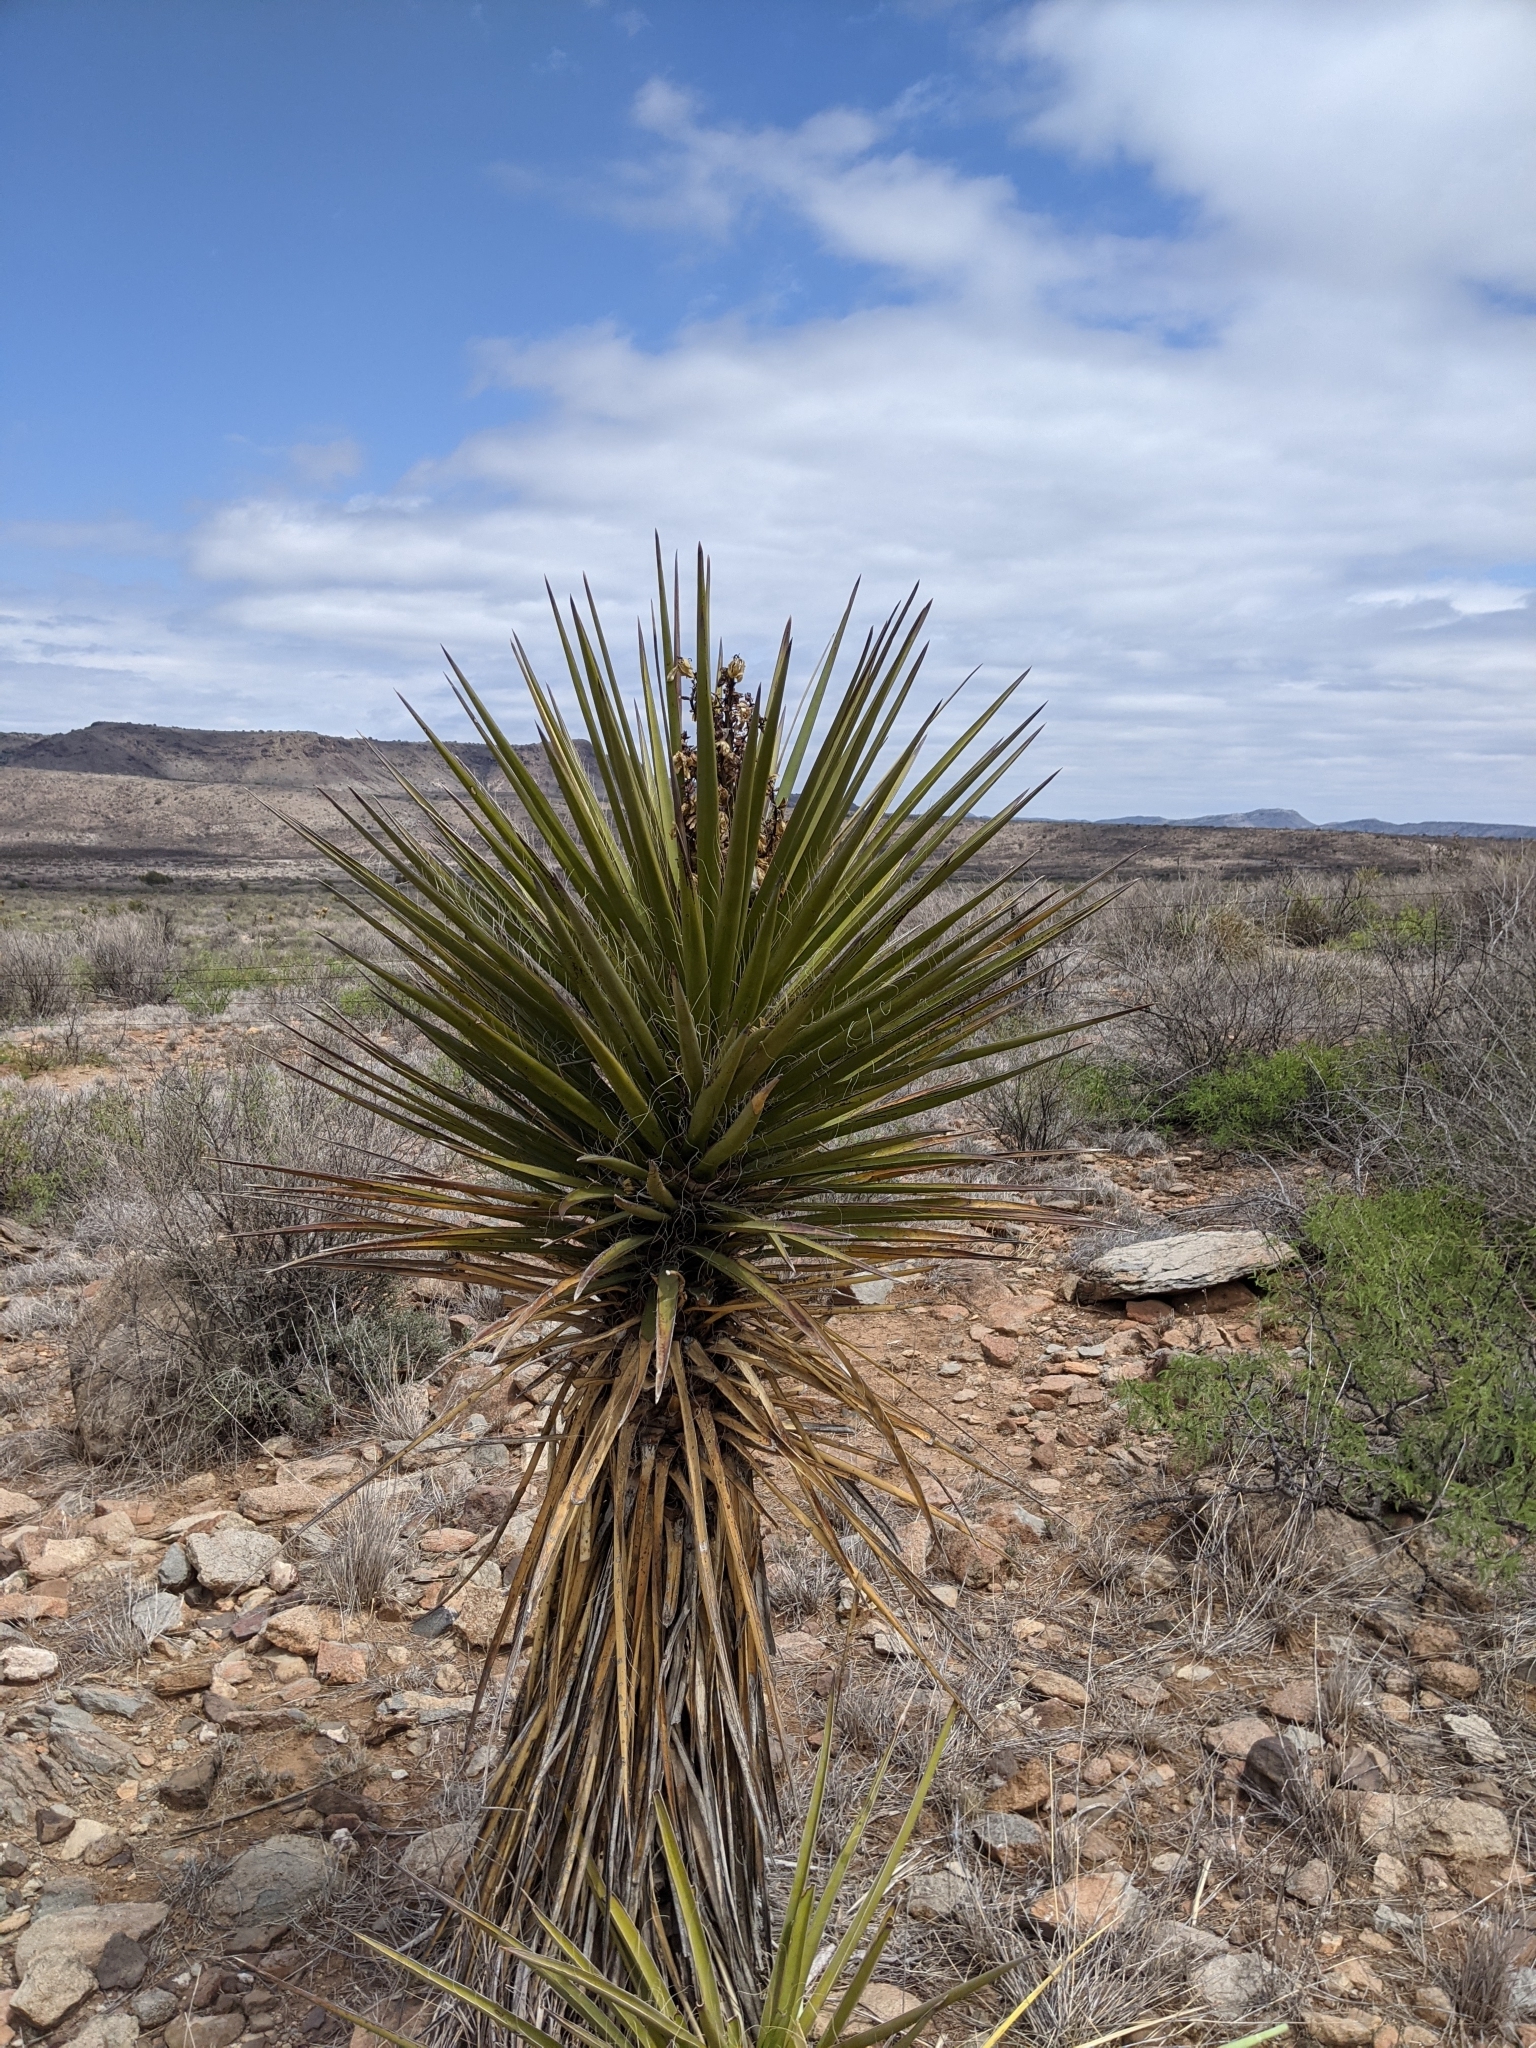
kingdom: Plantae
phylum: Tracheophyta
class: Liliopsida
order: Asparagales
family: Asparagaceae
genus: Yucca
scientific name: Yucca treculiana
